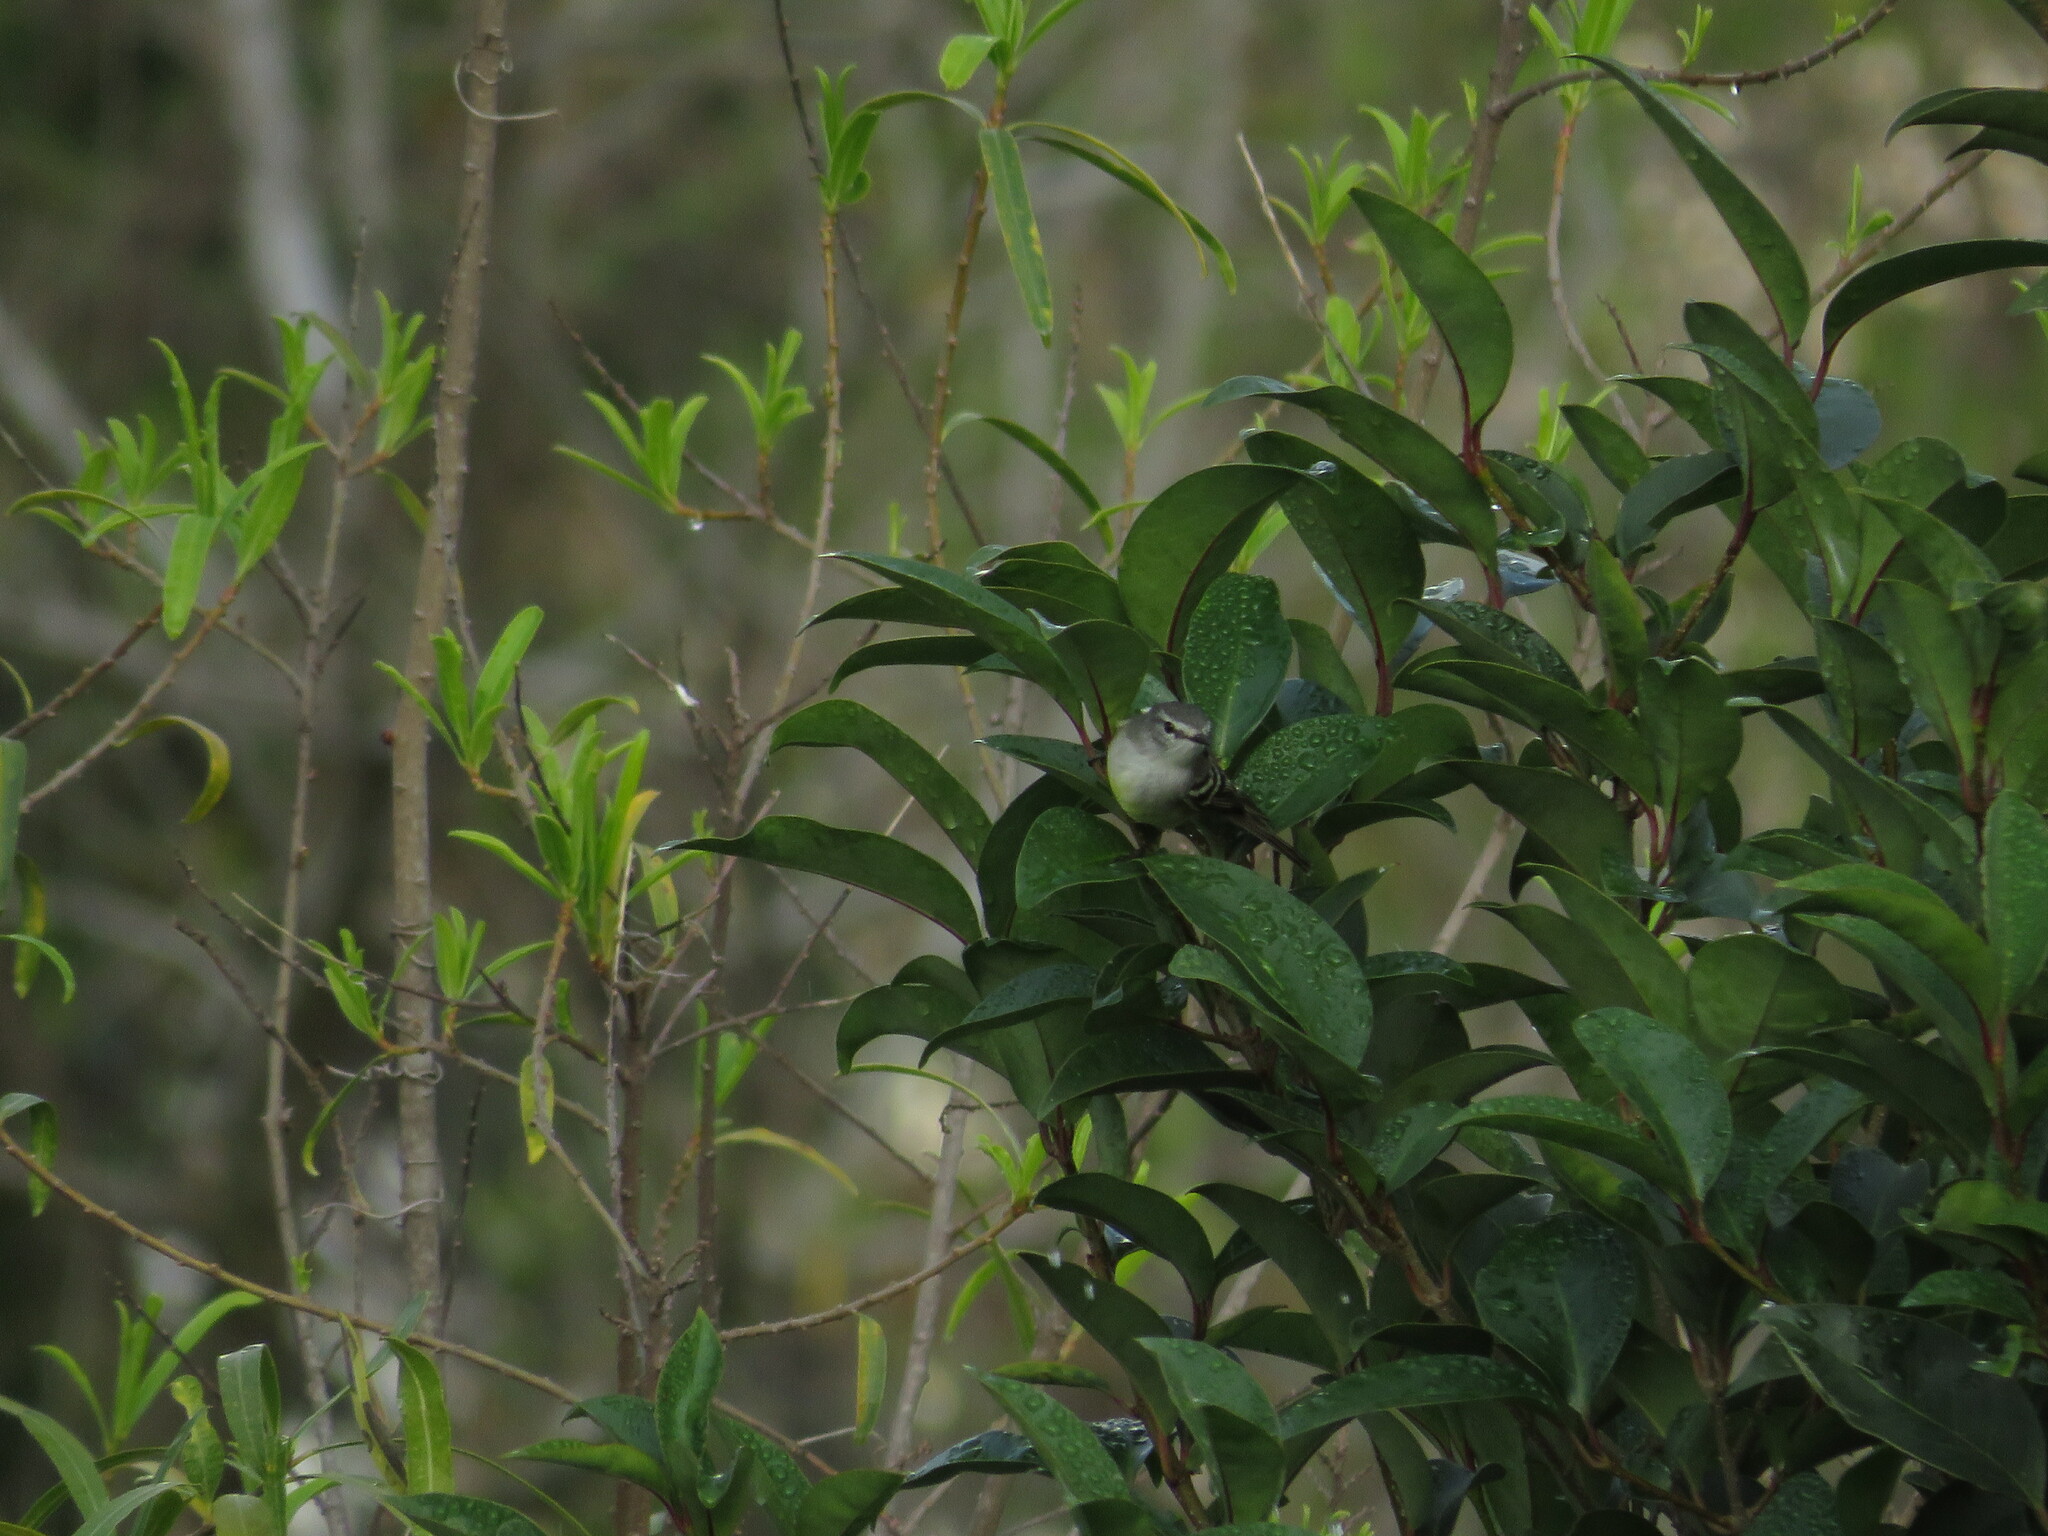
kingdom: Animalia
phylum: Chordata
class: Aves
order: Passeriformes
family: Tyrannidae
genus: Serpophaga
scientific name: Serpophaga subcristata
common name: White-crested tyrannulet
